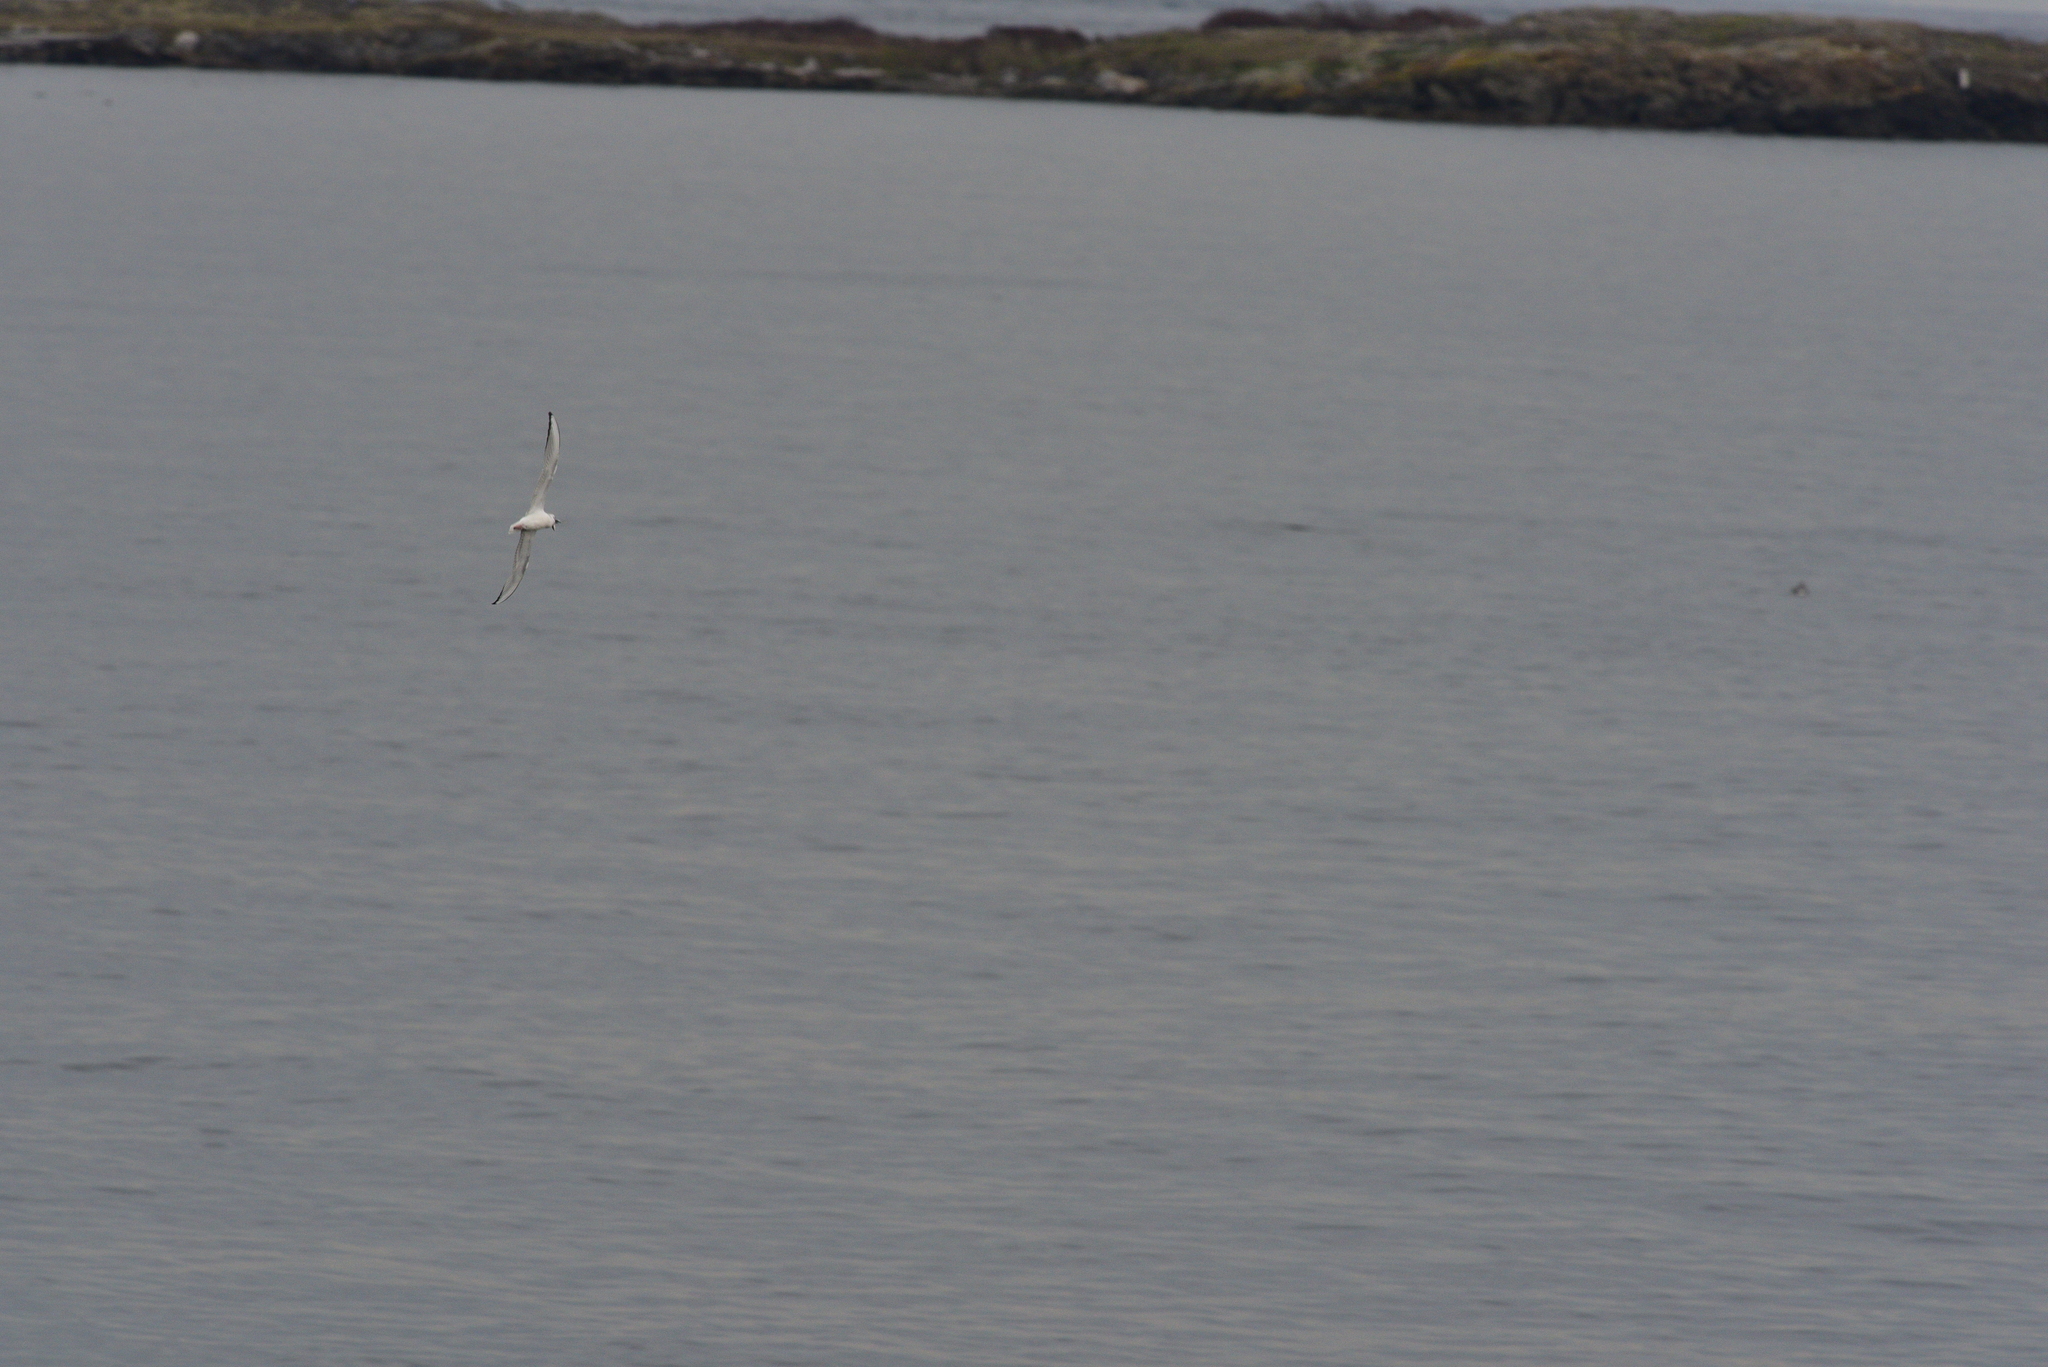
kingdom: Animalia
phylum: Chordata
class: Aves
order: Charadriiformes
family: Laridae
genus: Chroicocephalus
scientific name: Chroicocephalus philadelphia
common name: Bonaparte's gull
